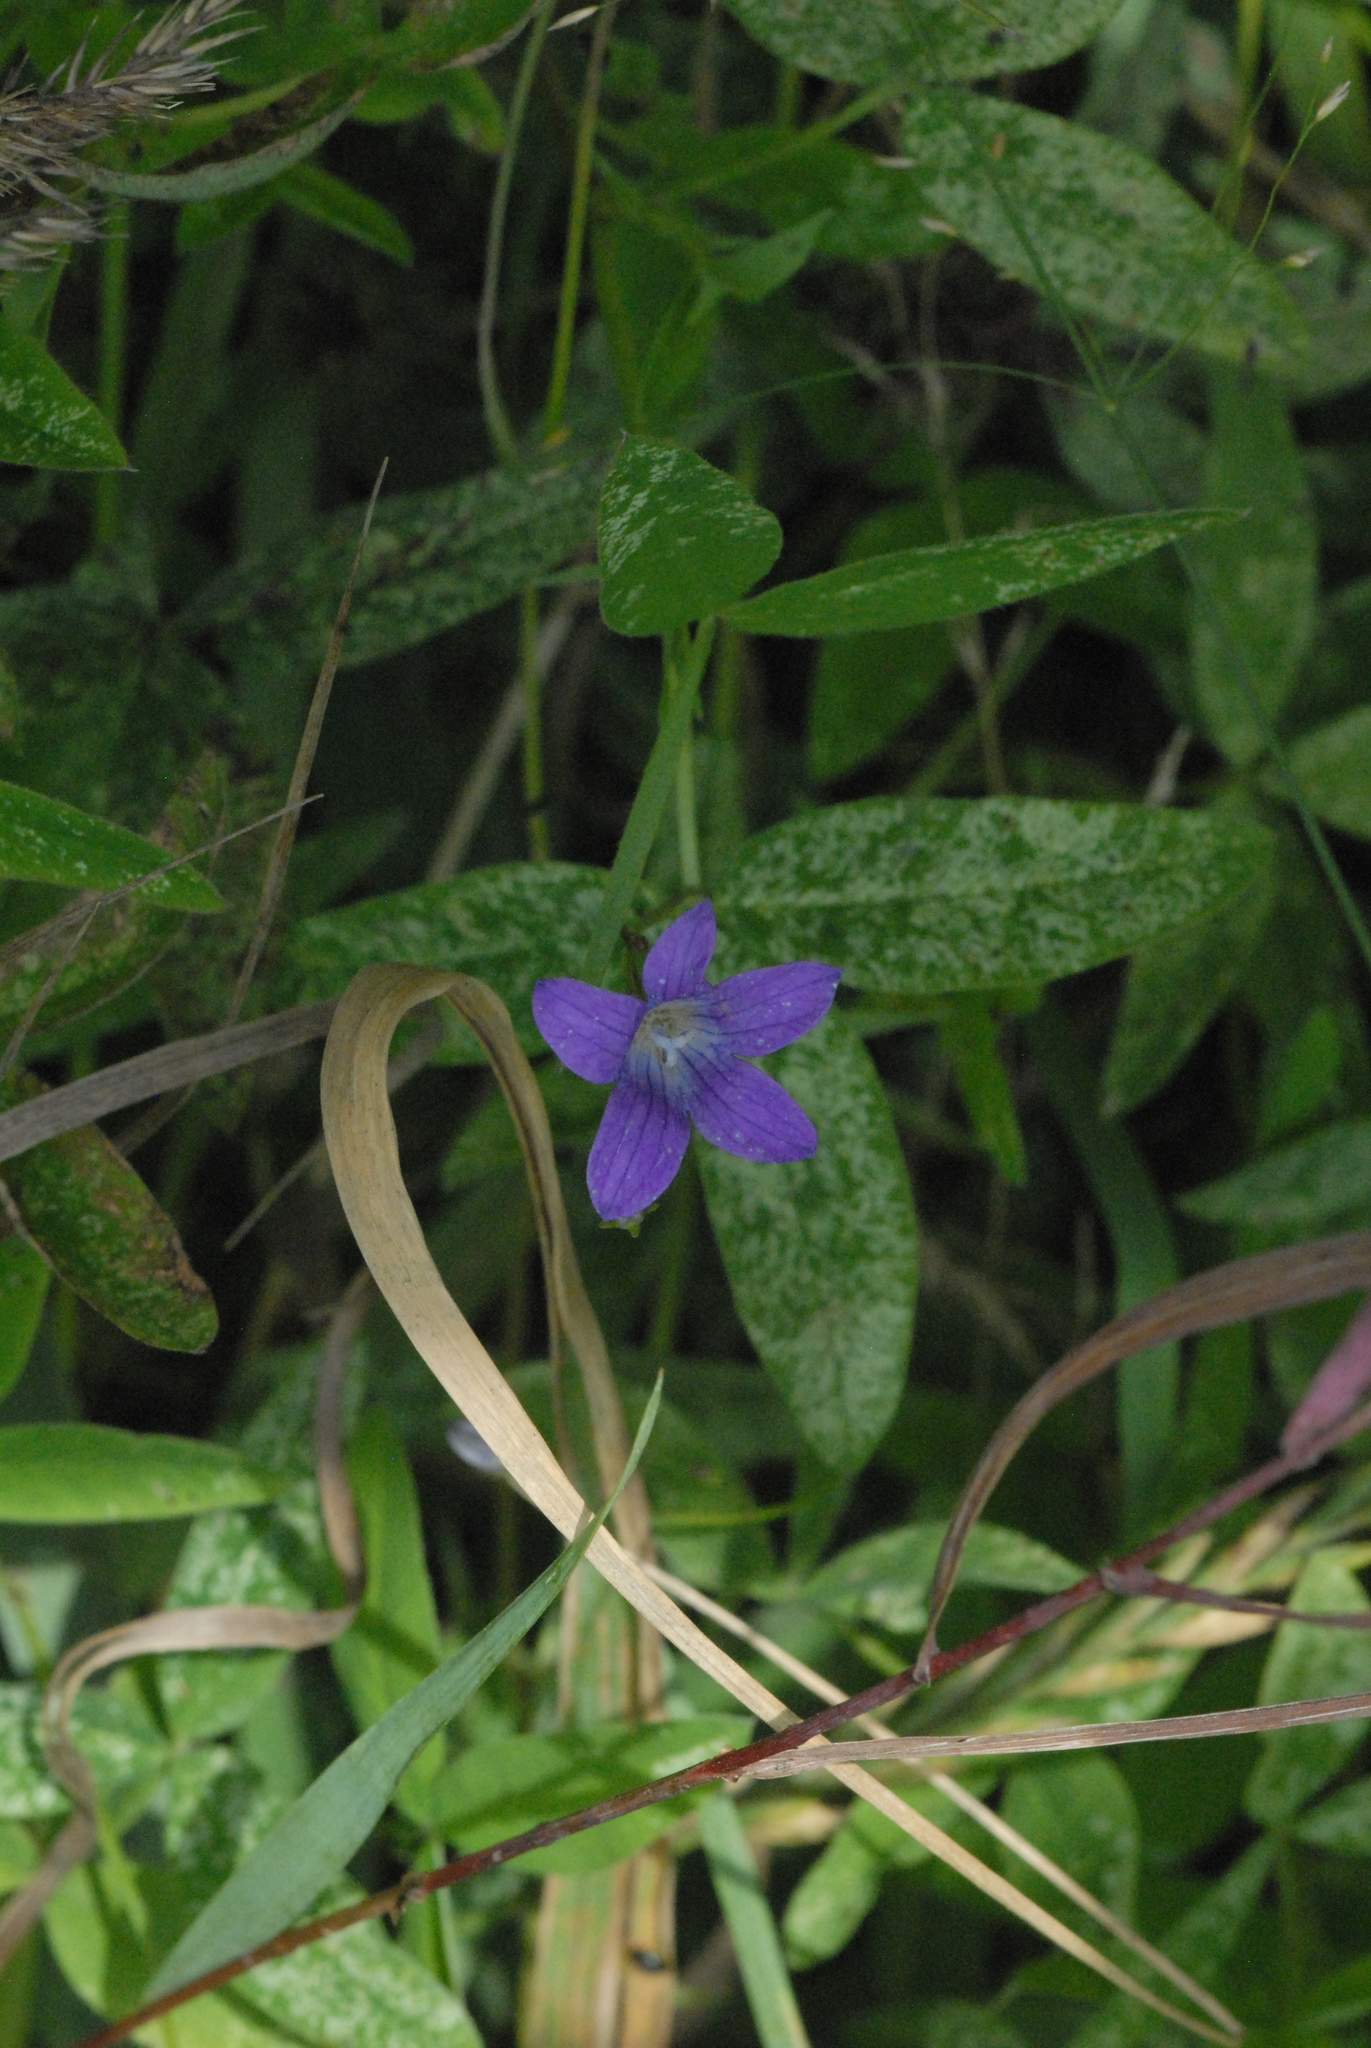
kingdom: Plantae
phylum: Tracheophyta
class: Magnoliopsida
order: Asterales
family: Campanulaceae
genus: Campanula
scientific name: Campanula patula
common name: Spreading bellflower
